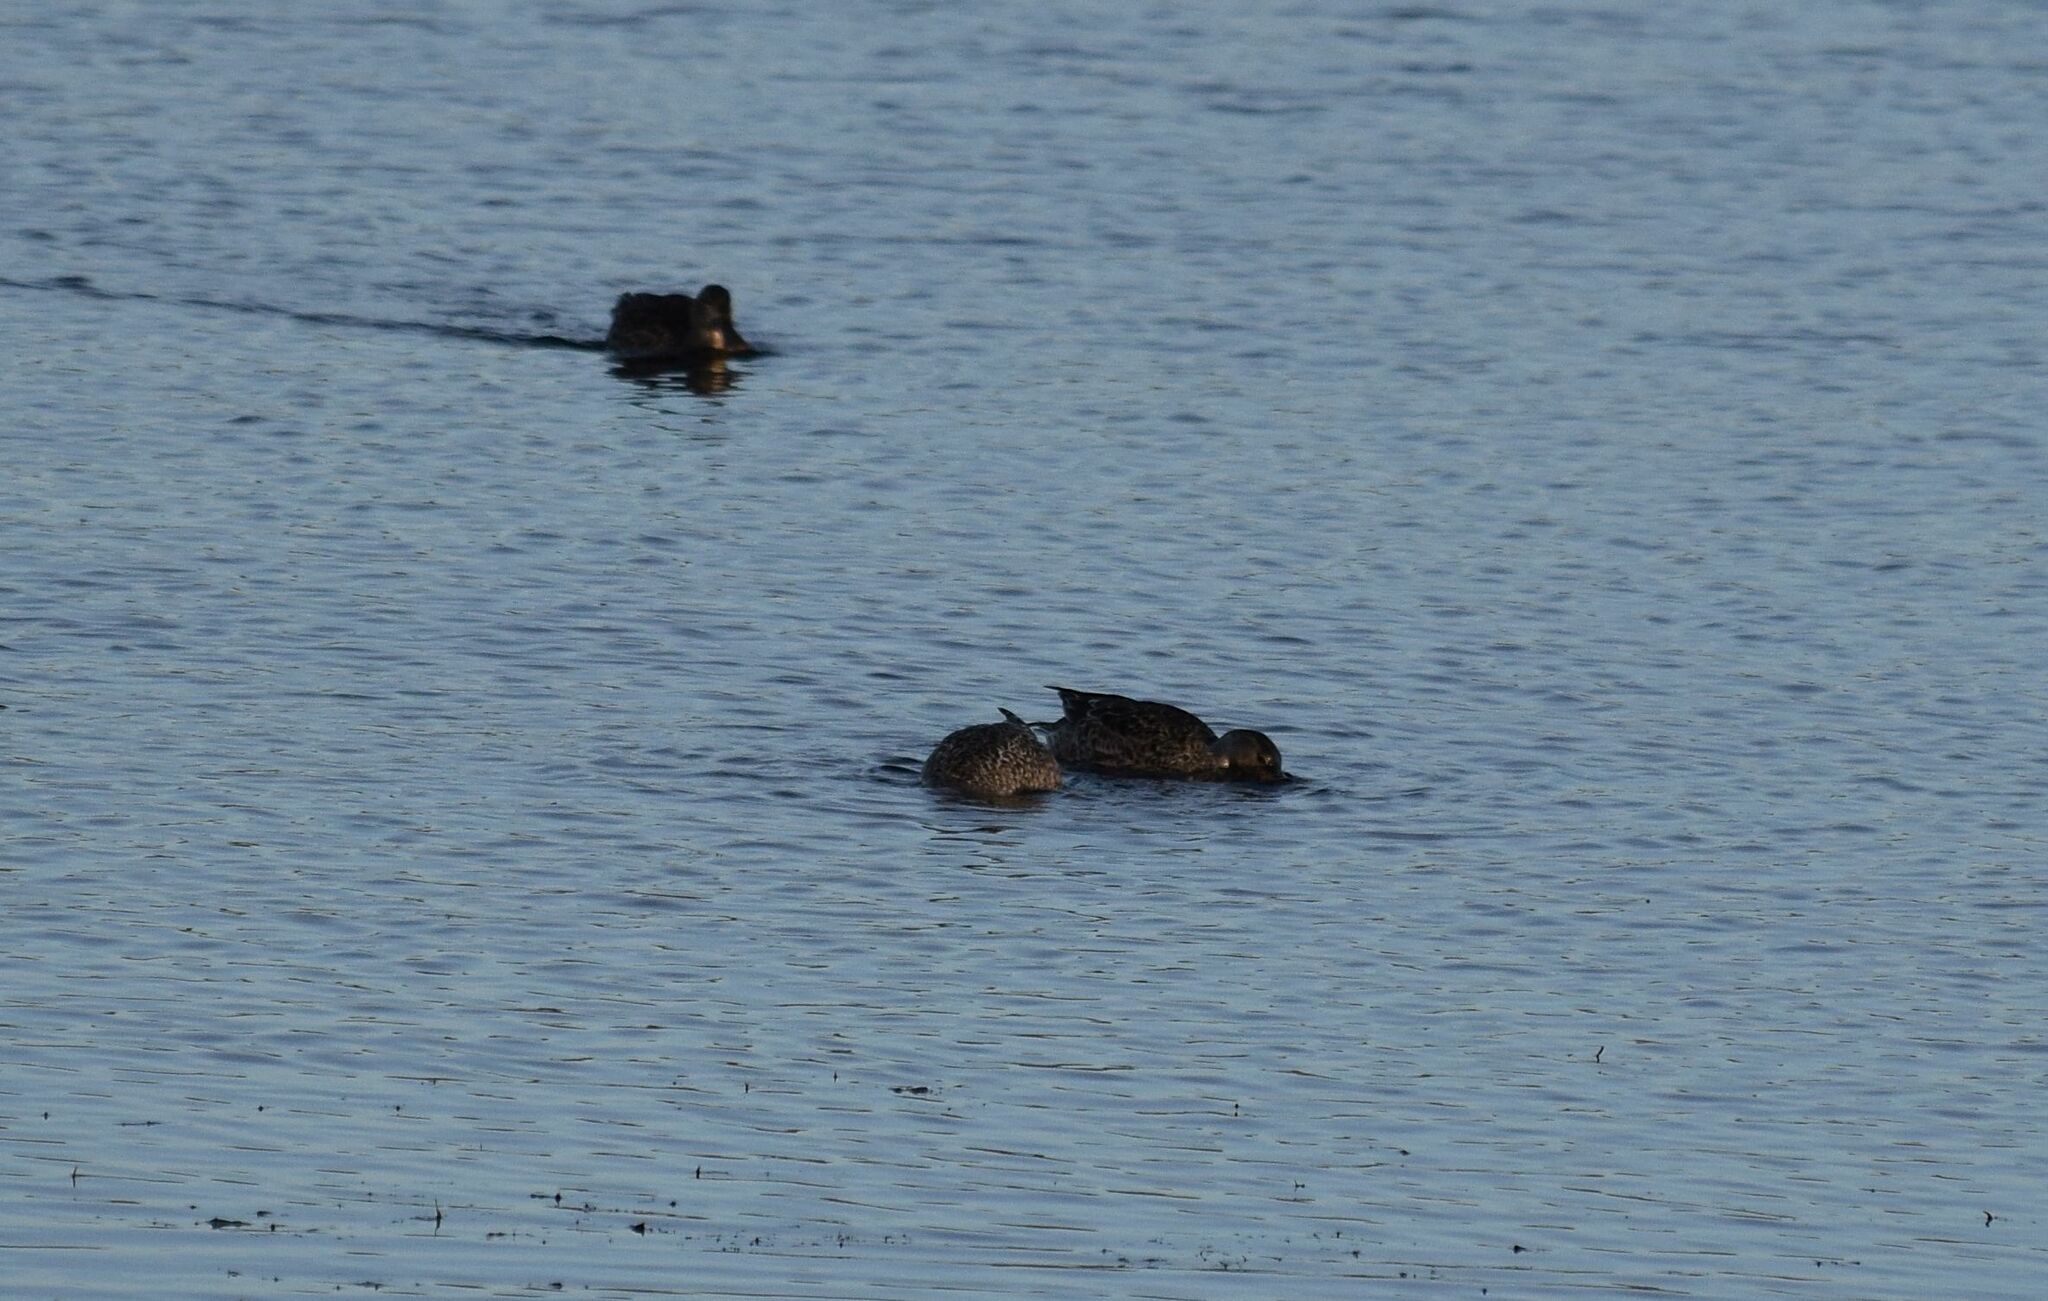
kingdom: Animalia
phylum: Chordata
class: Aves
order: Anseriformes
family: Anatidae
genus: Spatula
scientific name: Spatula clypeata
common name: Northern shoveler
